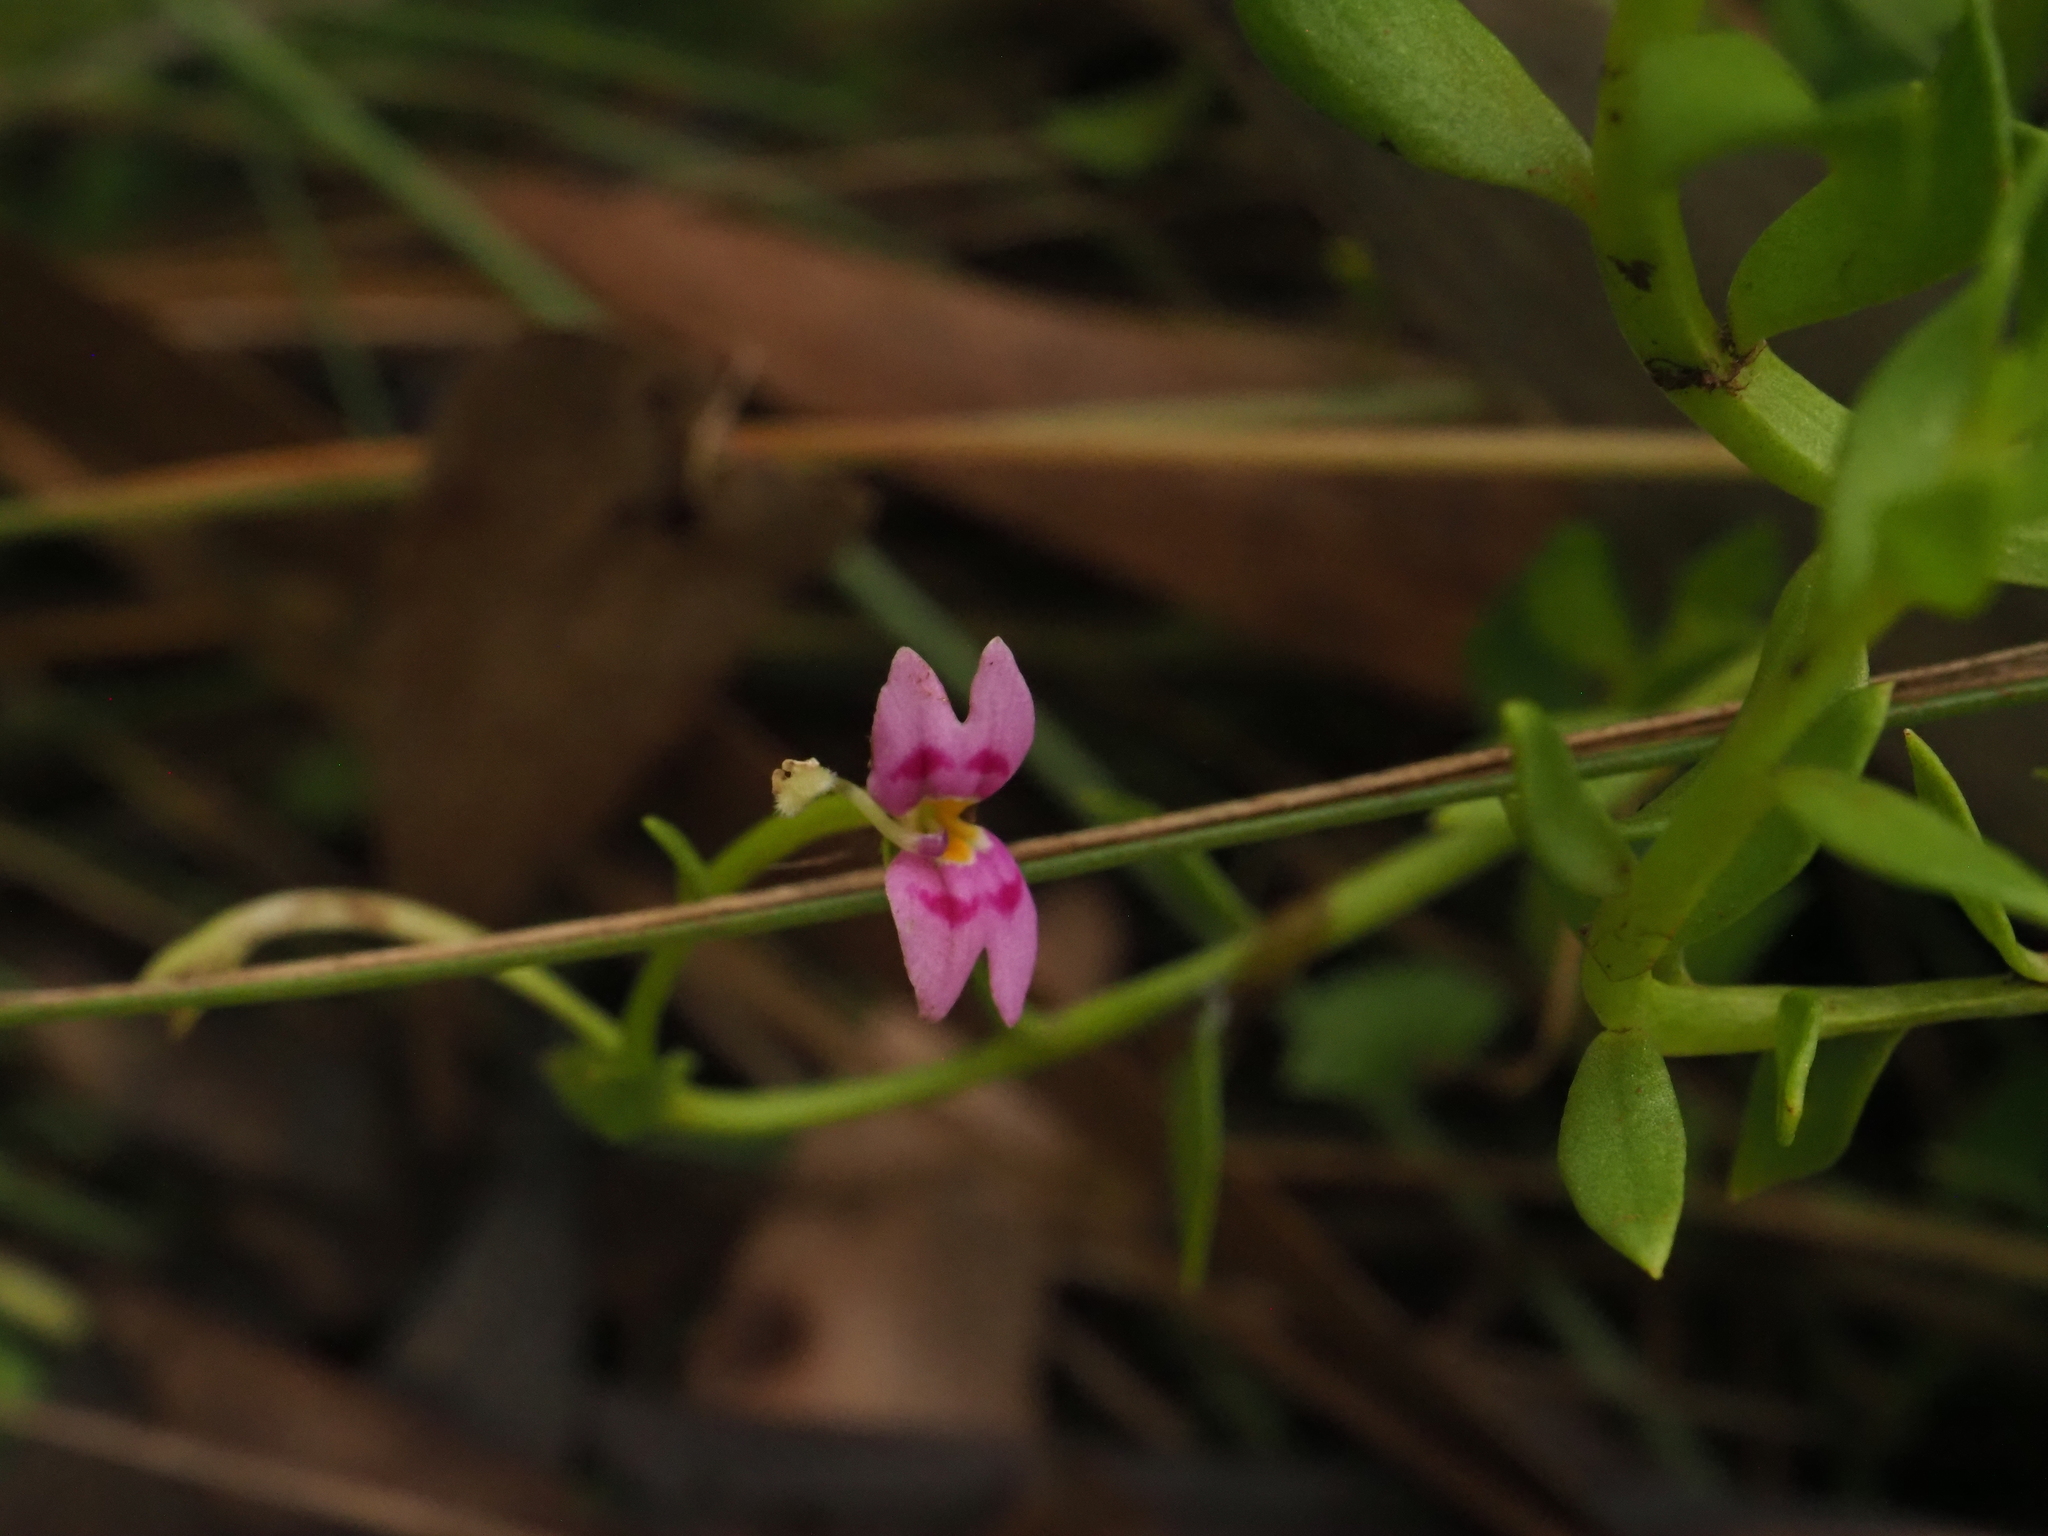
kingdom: Plantae
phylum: Tracheophyta
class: Magnoliopsida
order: Asterales
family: Stylidiaceae
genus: Stylidium
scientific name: Stylidium fluminense
